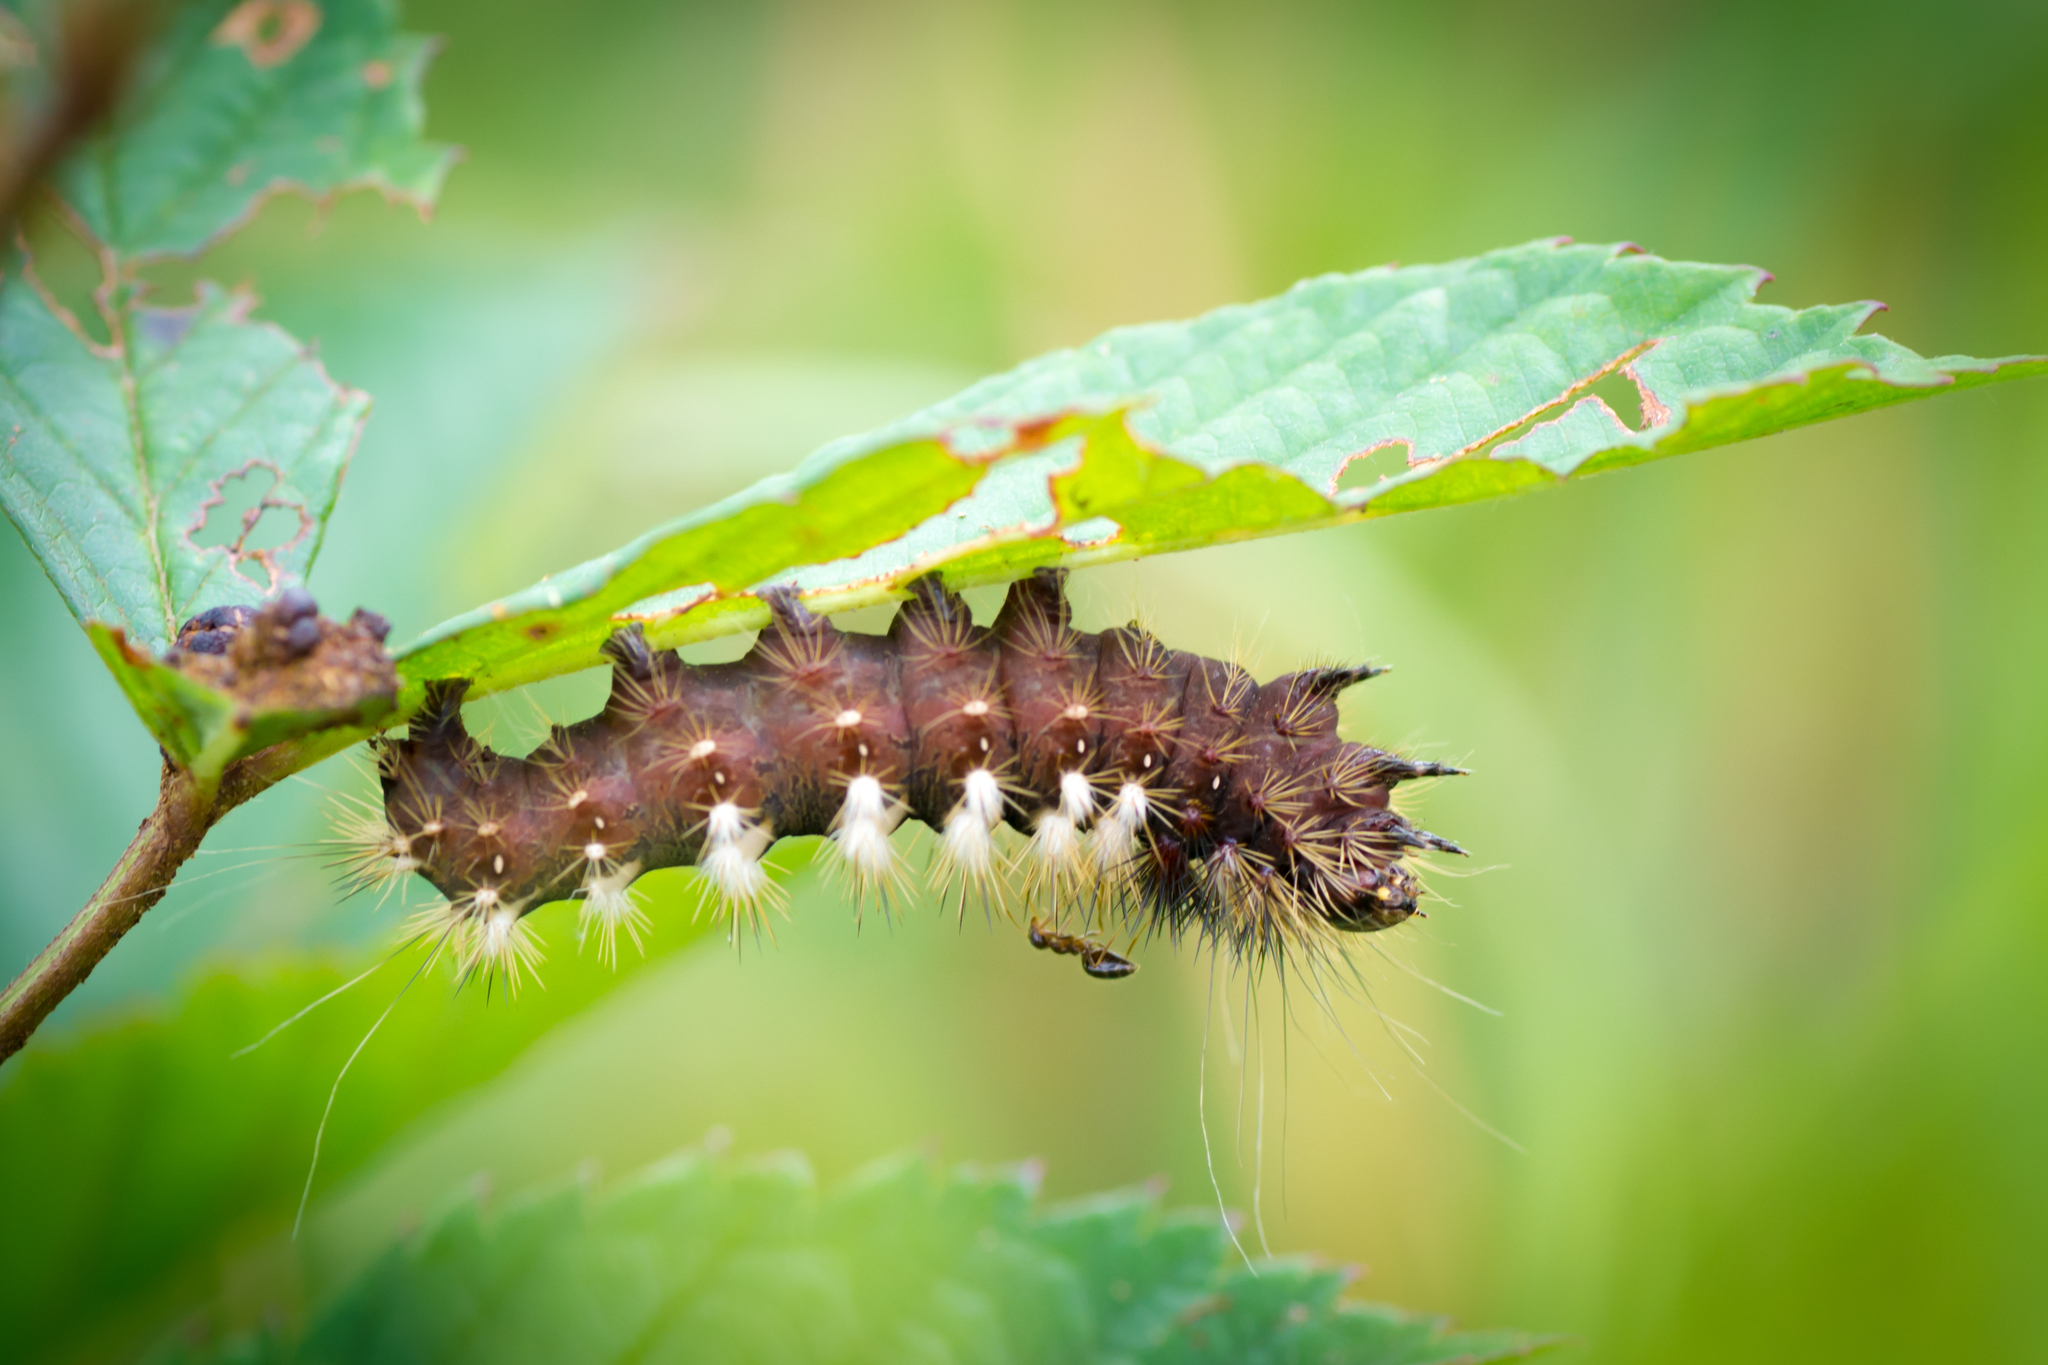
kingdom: Animalia
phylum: Arthropoda
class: Insecta
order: Lepidoptera
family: Noctuidae
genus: Acronicta
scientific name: Acronicta longa
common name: Long-winged dagger
